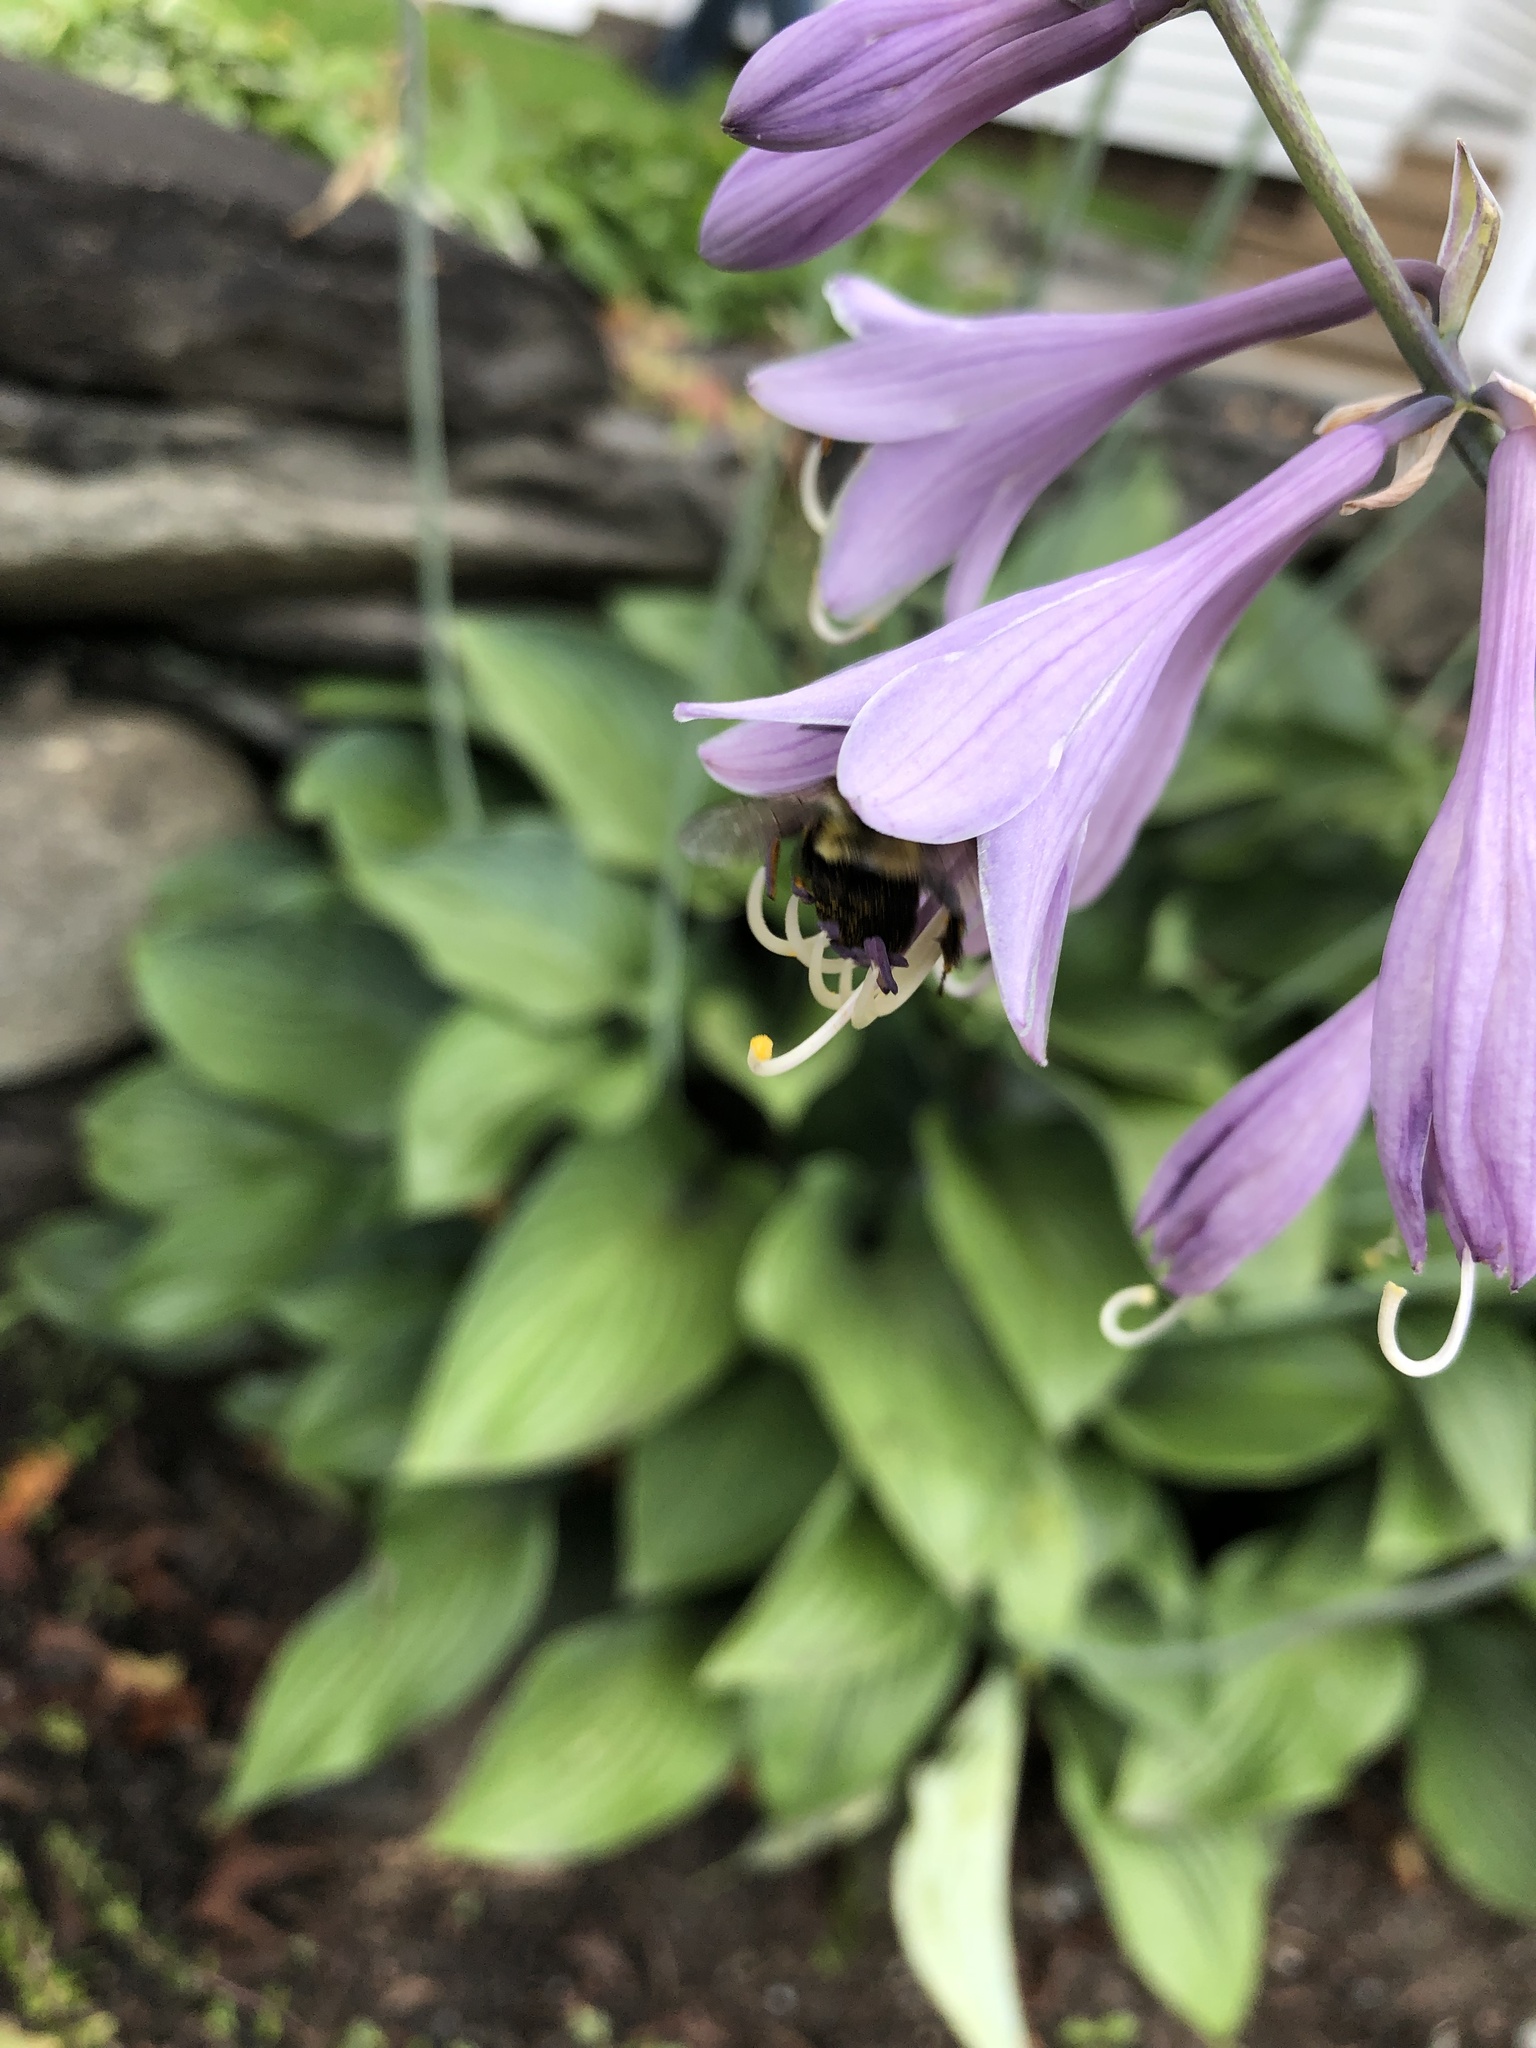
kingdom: Animalia
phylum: Arthropoda
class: Insecta
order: Hymenoptera
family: Apidae
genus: Bombus
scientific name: Bombus impatiens
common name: Common eastern bumble bee
